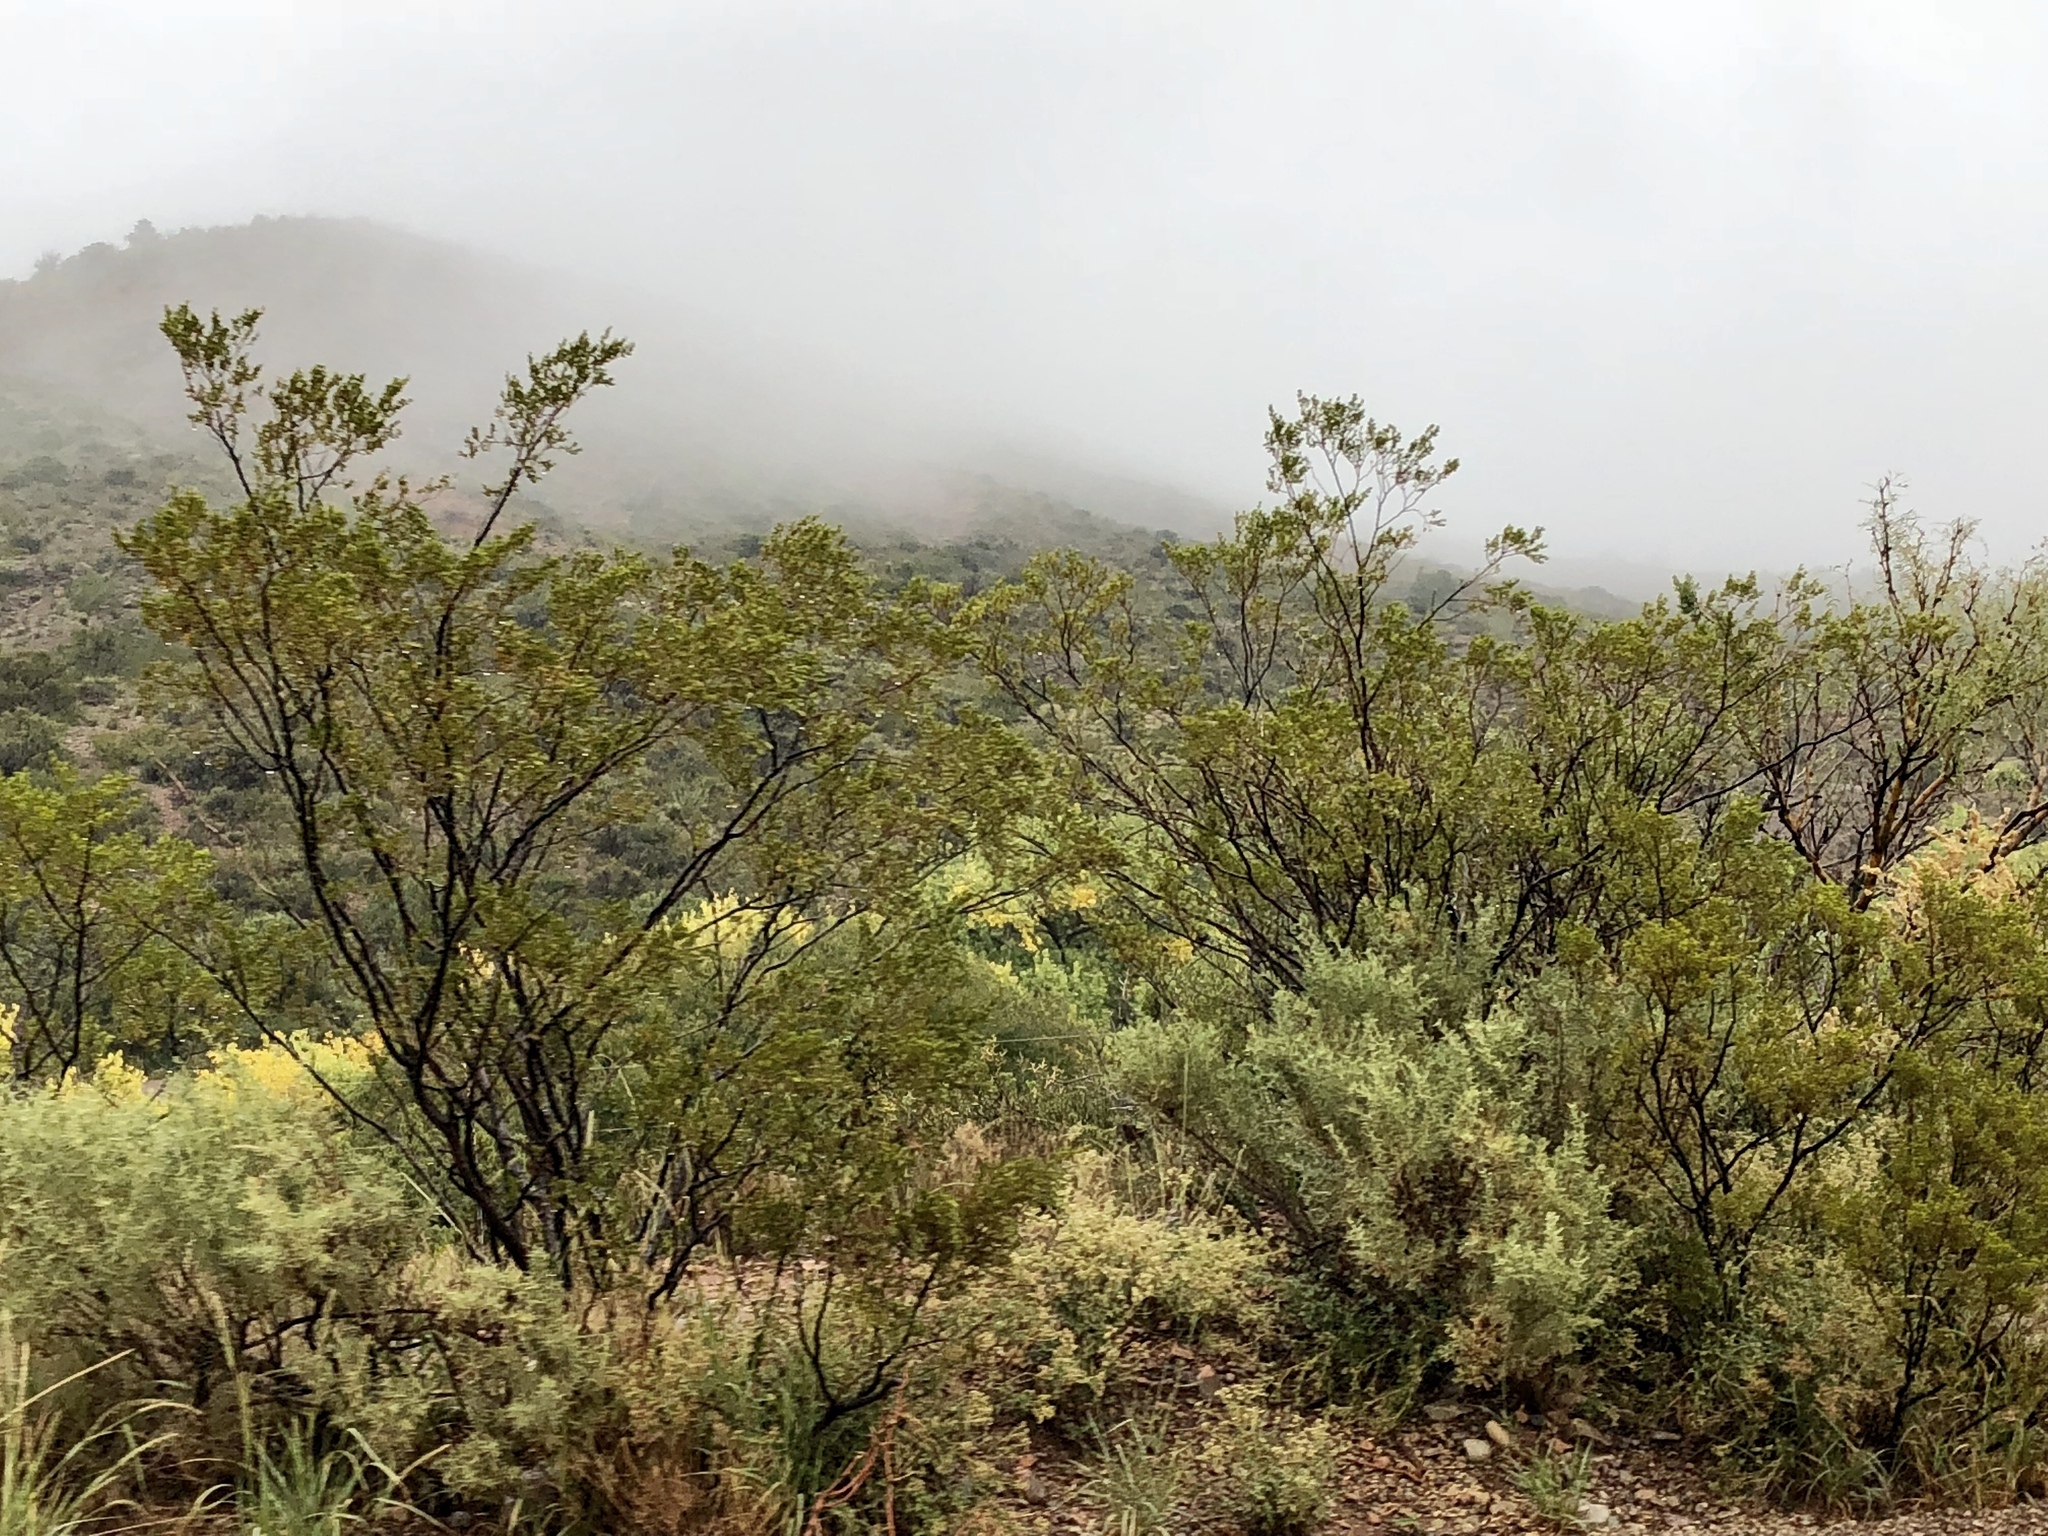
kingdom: Plantae
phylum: Tracheophyta
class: Magnoliopsida
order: Zygophyllales
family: Zygophyllaceae
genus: Larrea
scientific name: Larrea tridentata
